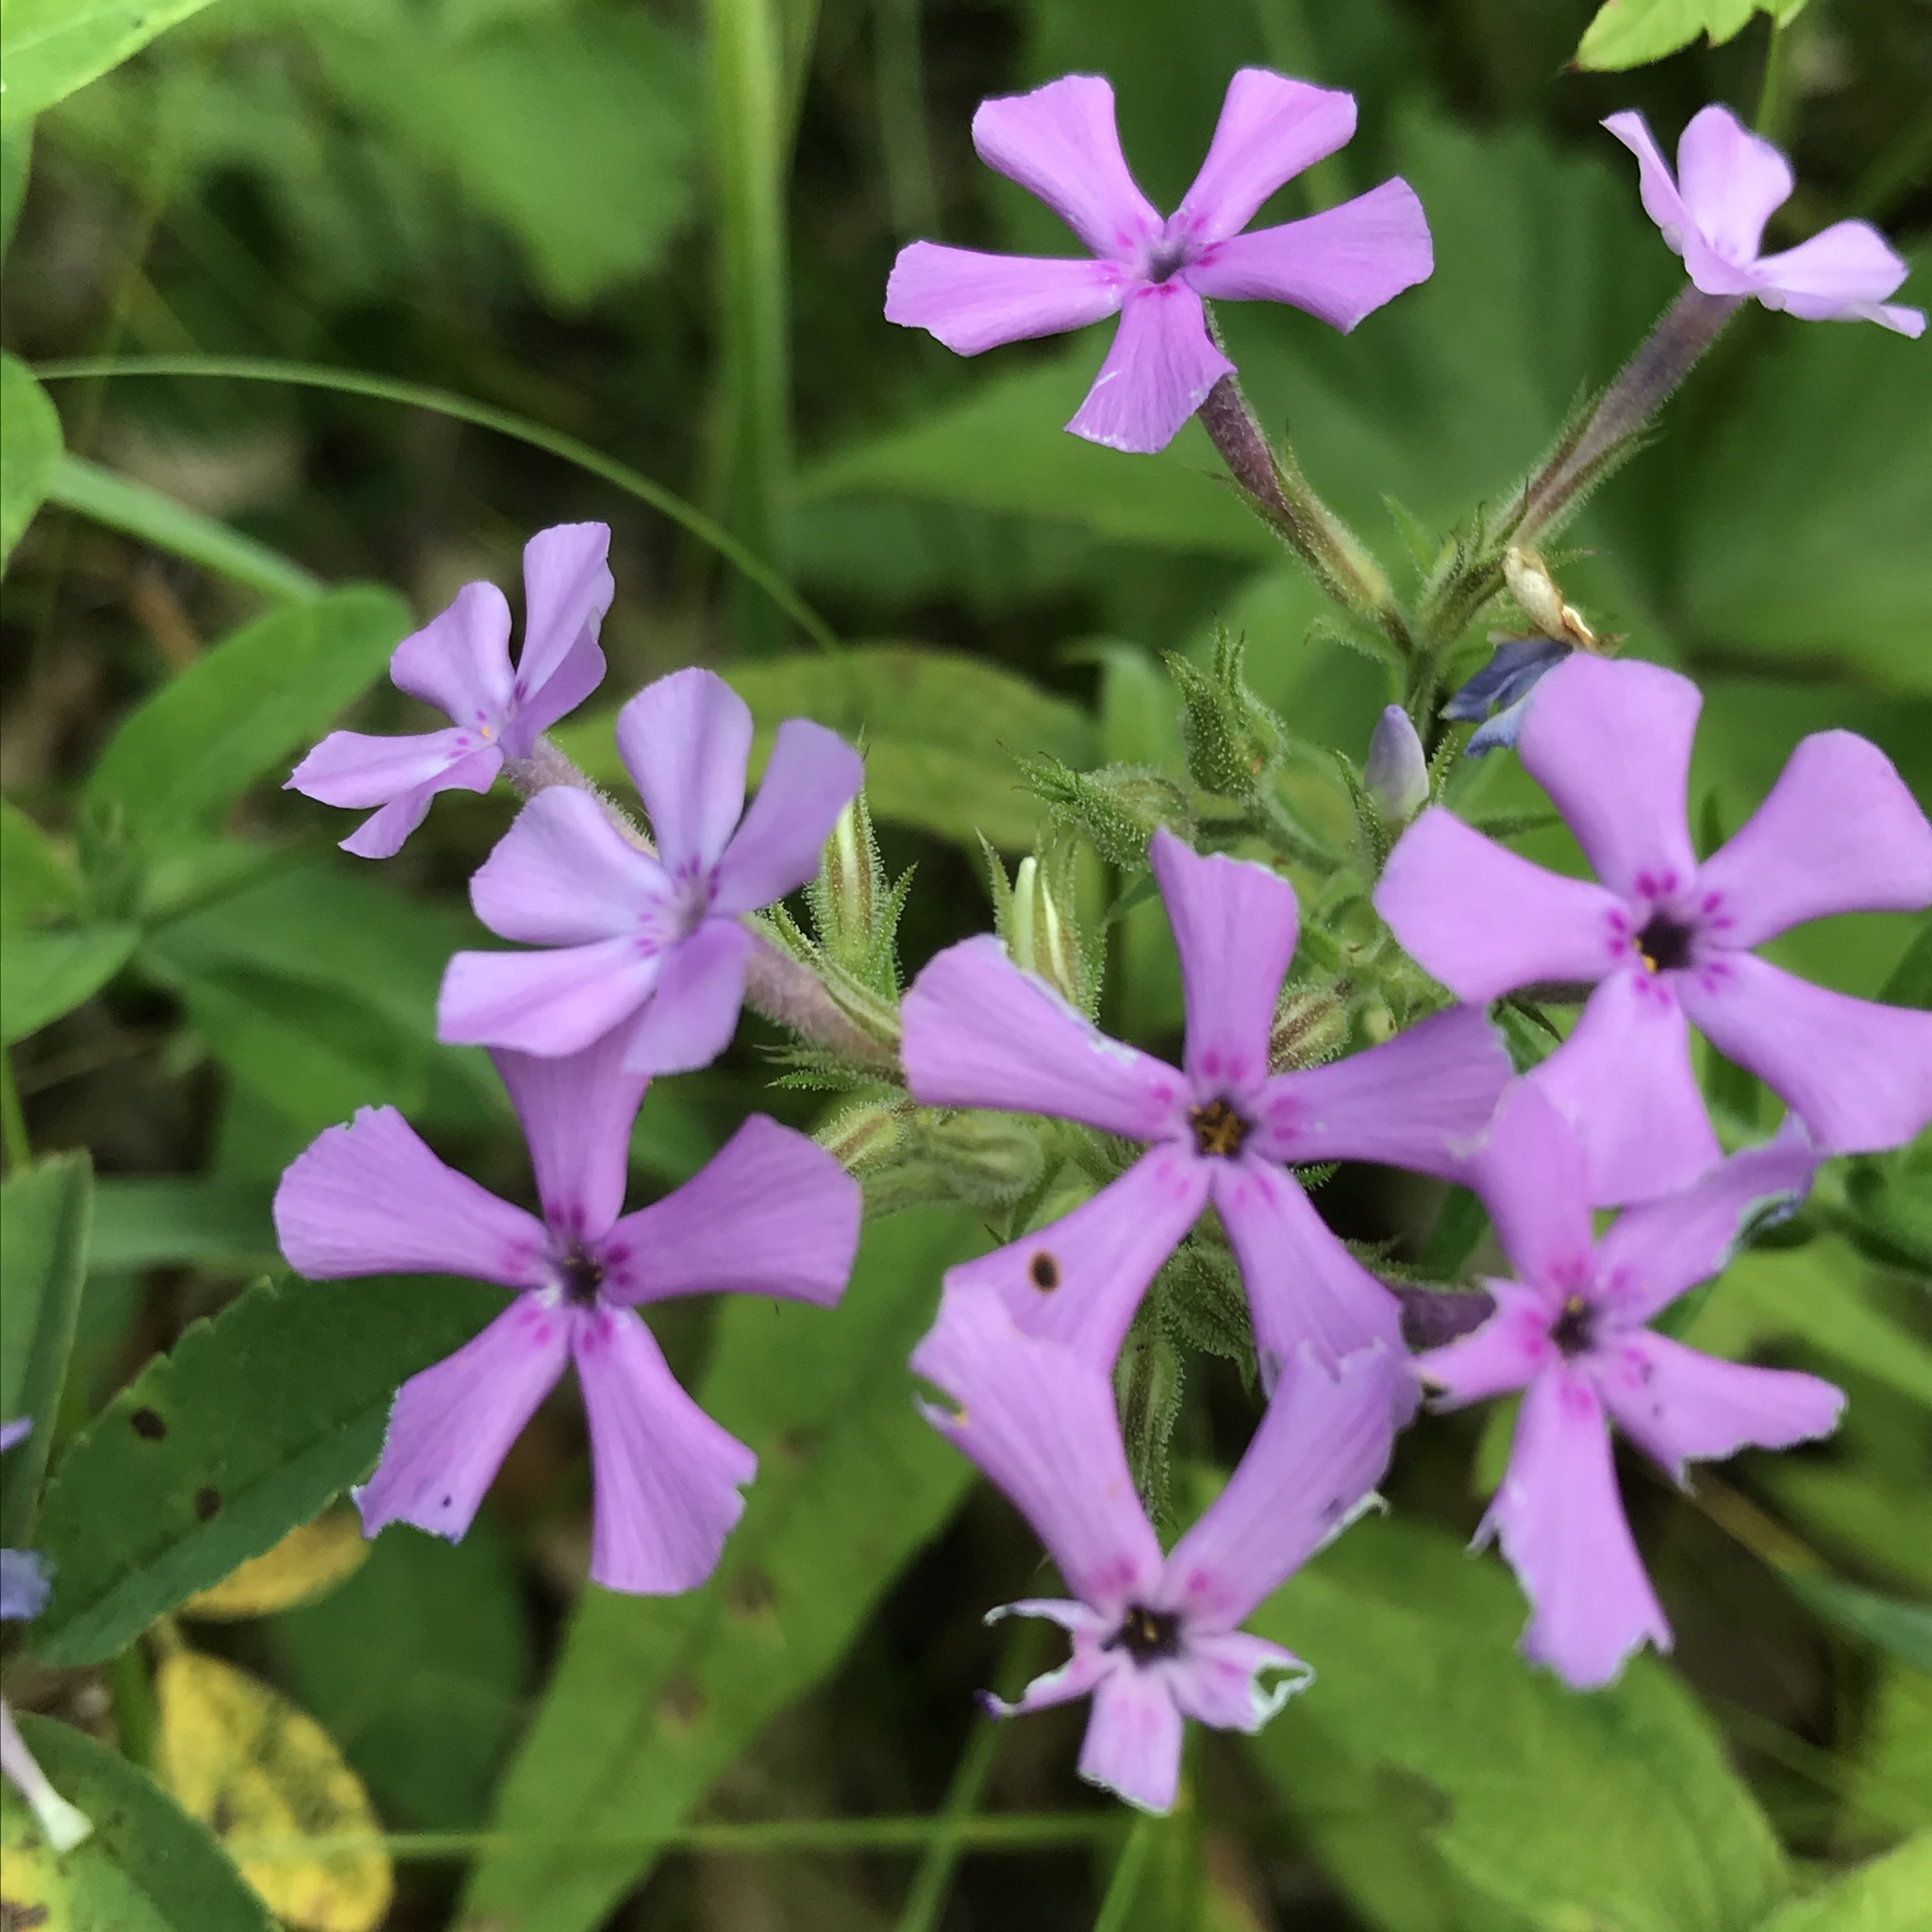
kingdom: Plantae
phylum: Tracheophyta
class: Magnoliopsida
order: Ericales
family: Polemoniaceae
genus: Phlox
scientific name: Phlox pilosa
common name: Prairie phlox
